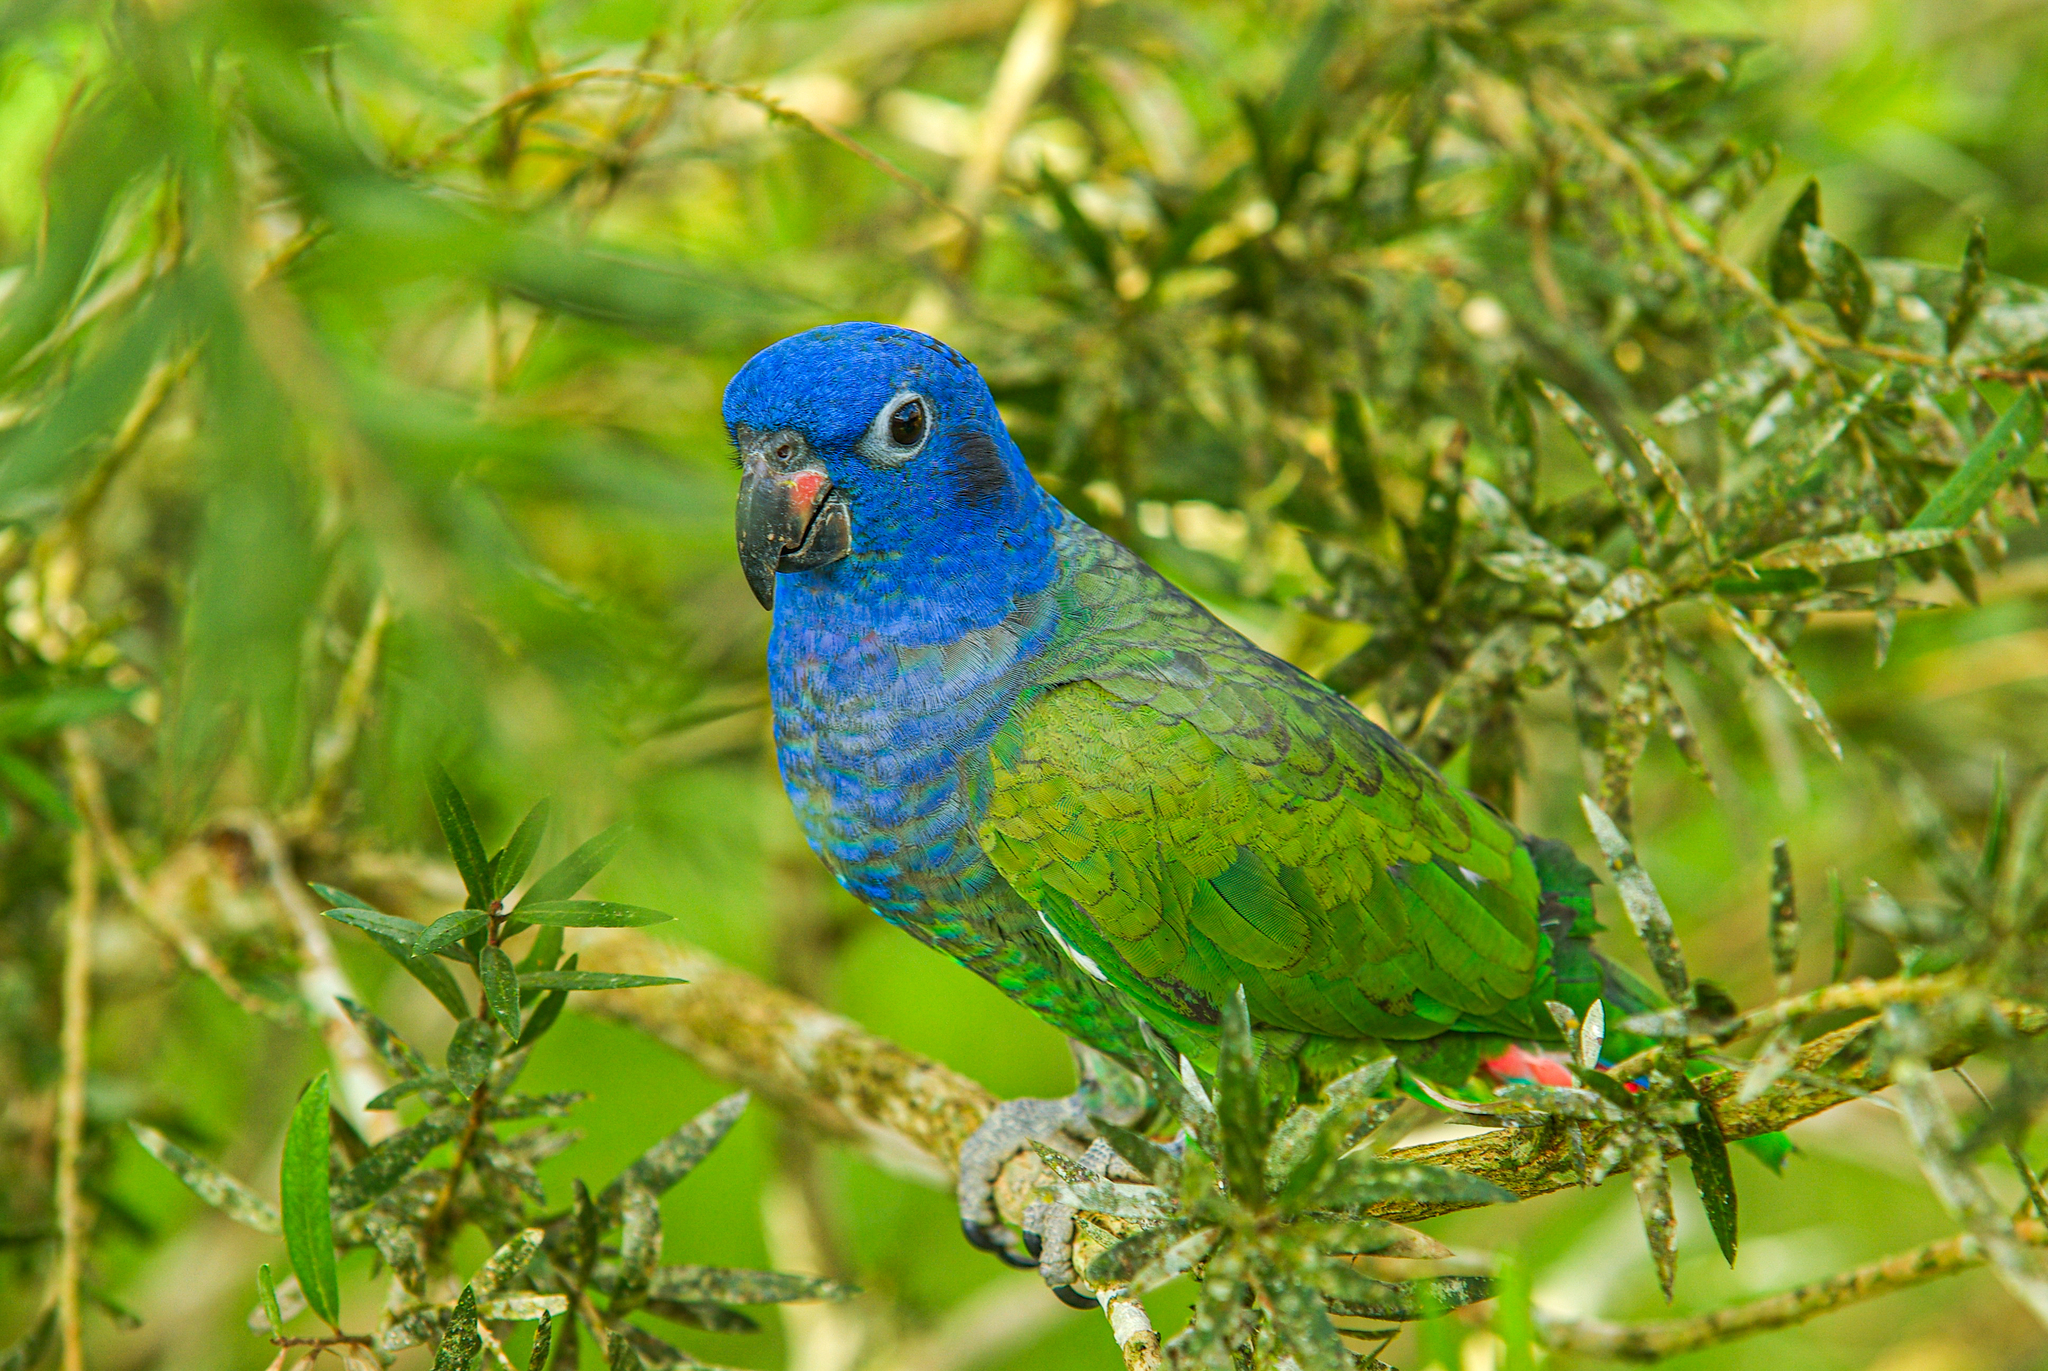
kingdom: Animalia
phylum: Chordata
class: Aves
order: Psittaciformes
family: Psittacidae
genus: Pionus
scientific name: Pionus menstruus
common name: Blue-headed parrot
